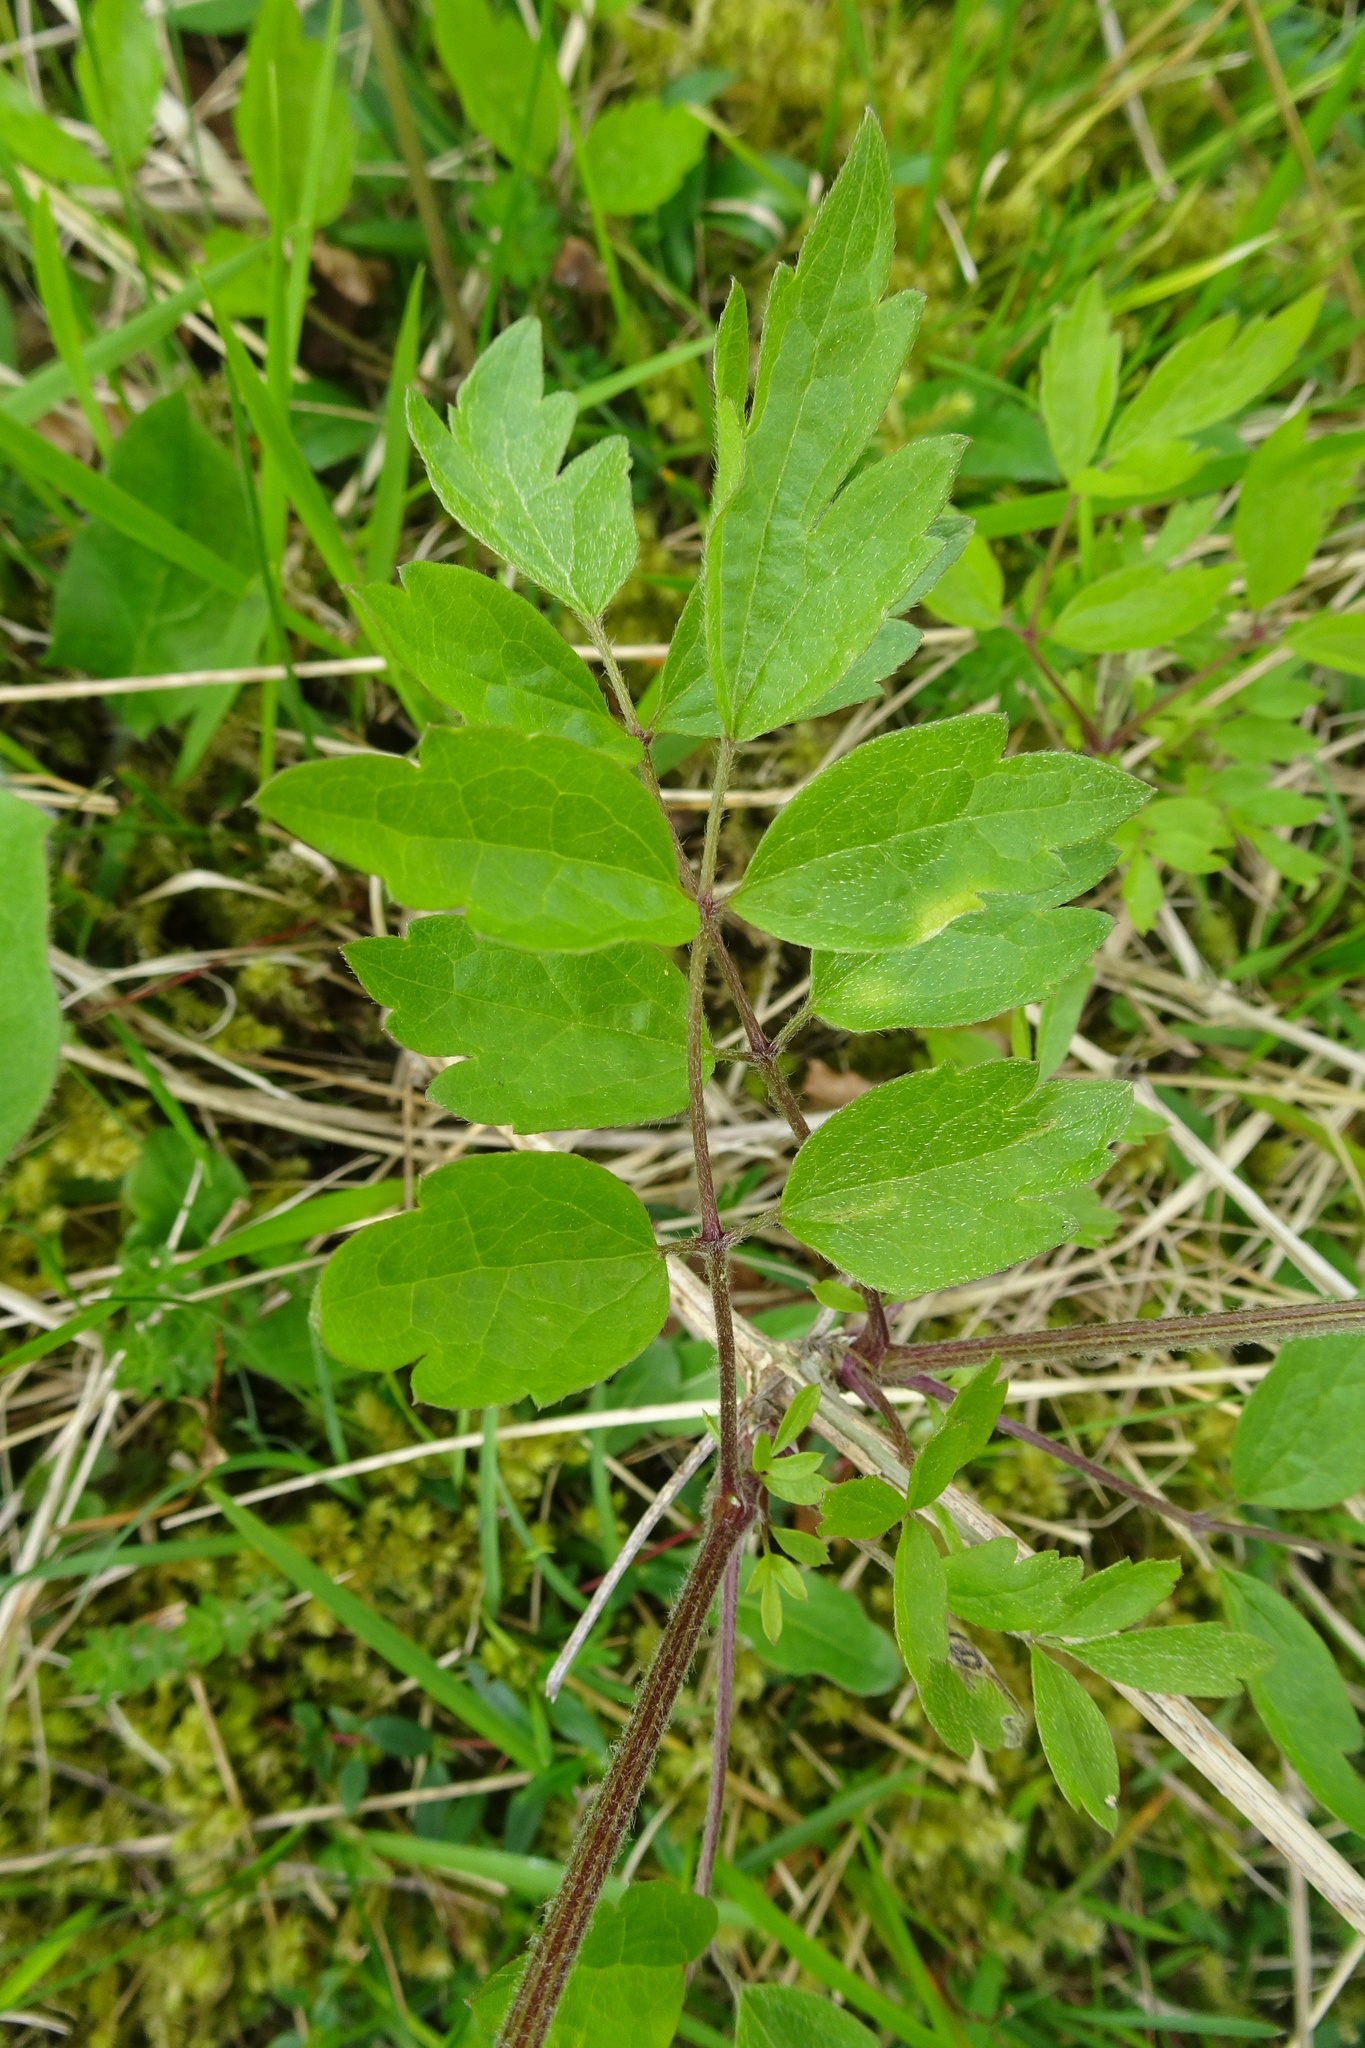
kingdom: Plantae
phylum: Tracheophyta
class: Magnoliopsida
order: Ranunculales
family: Ranunculaceae
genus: Clematis
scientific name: Clematis vitalba
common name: Evergreen clematis
